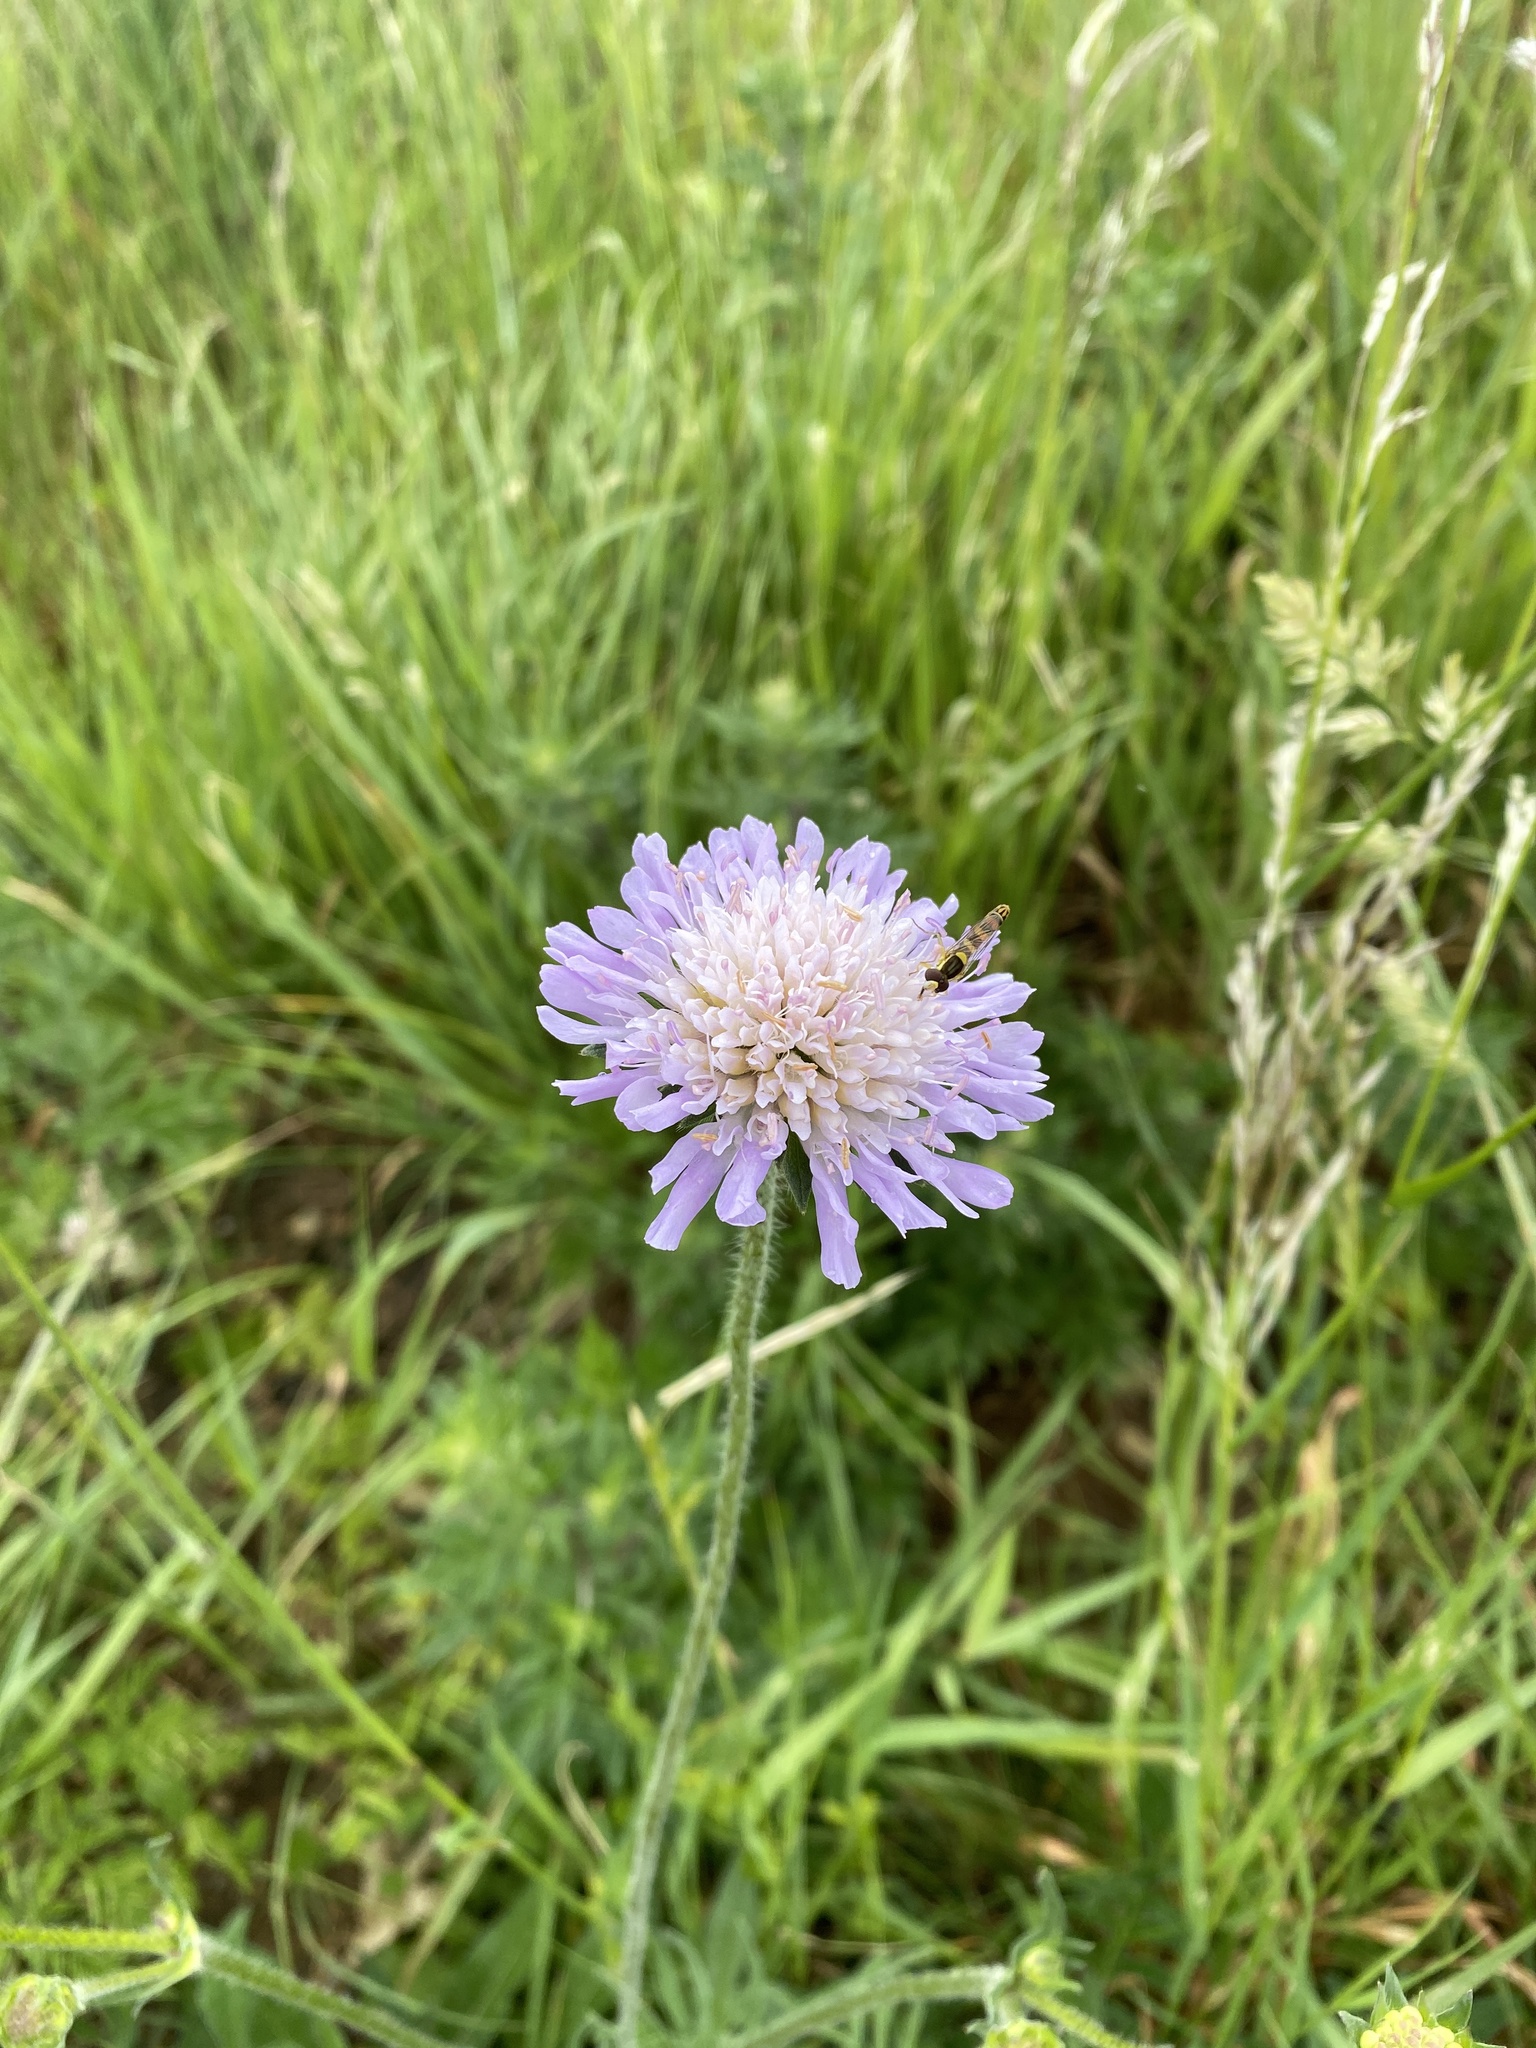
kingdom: Plantae
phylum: Tracheophyta
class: Magnoliopsida
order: Dipsacales
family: Caprifoliaceae
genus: Knautia
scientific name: Knautia arvensis
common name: Field scabiosa
